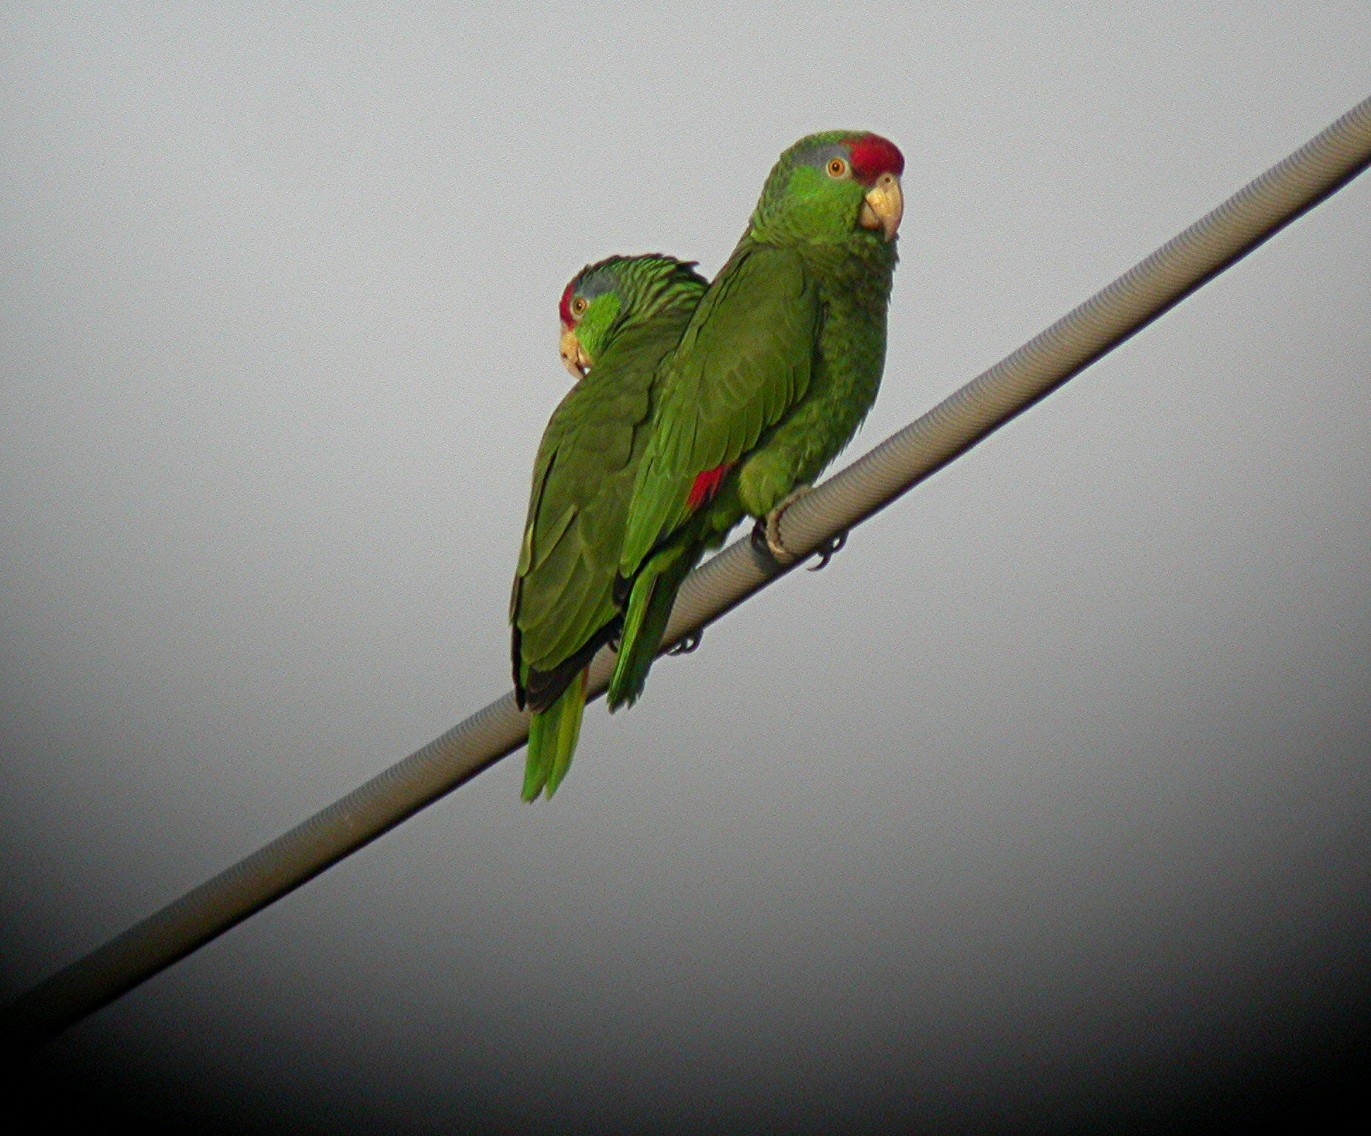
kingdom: Animalia
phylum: Chordata
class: Aves
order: Psittaciformes
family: Psittacidae
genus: Amazona
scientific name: Amazona viridigenalis
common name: Red-crowned amazon
